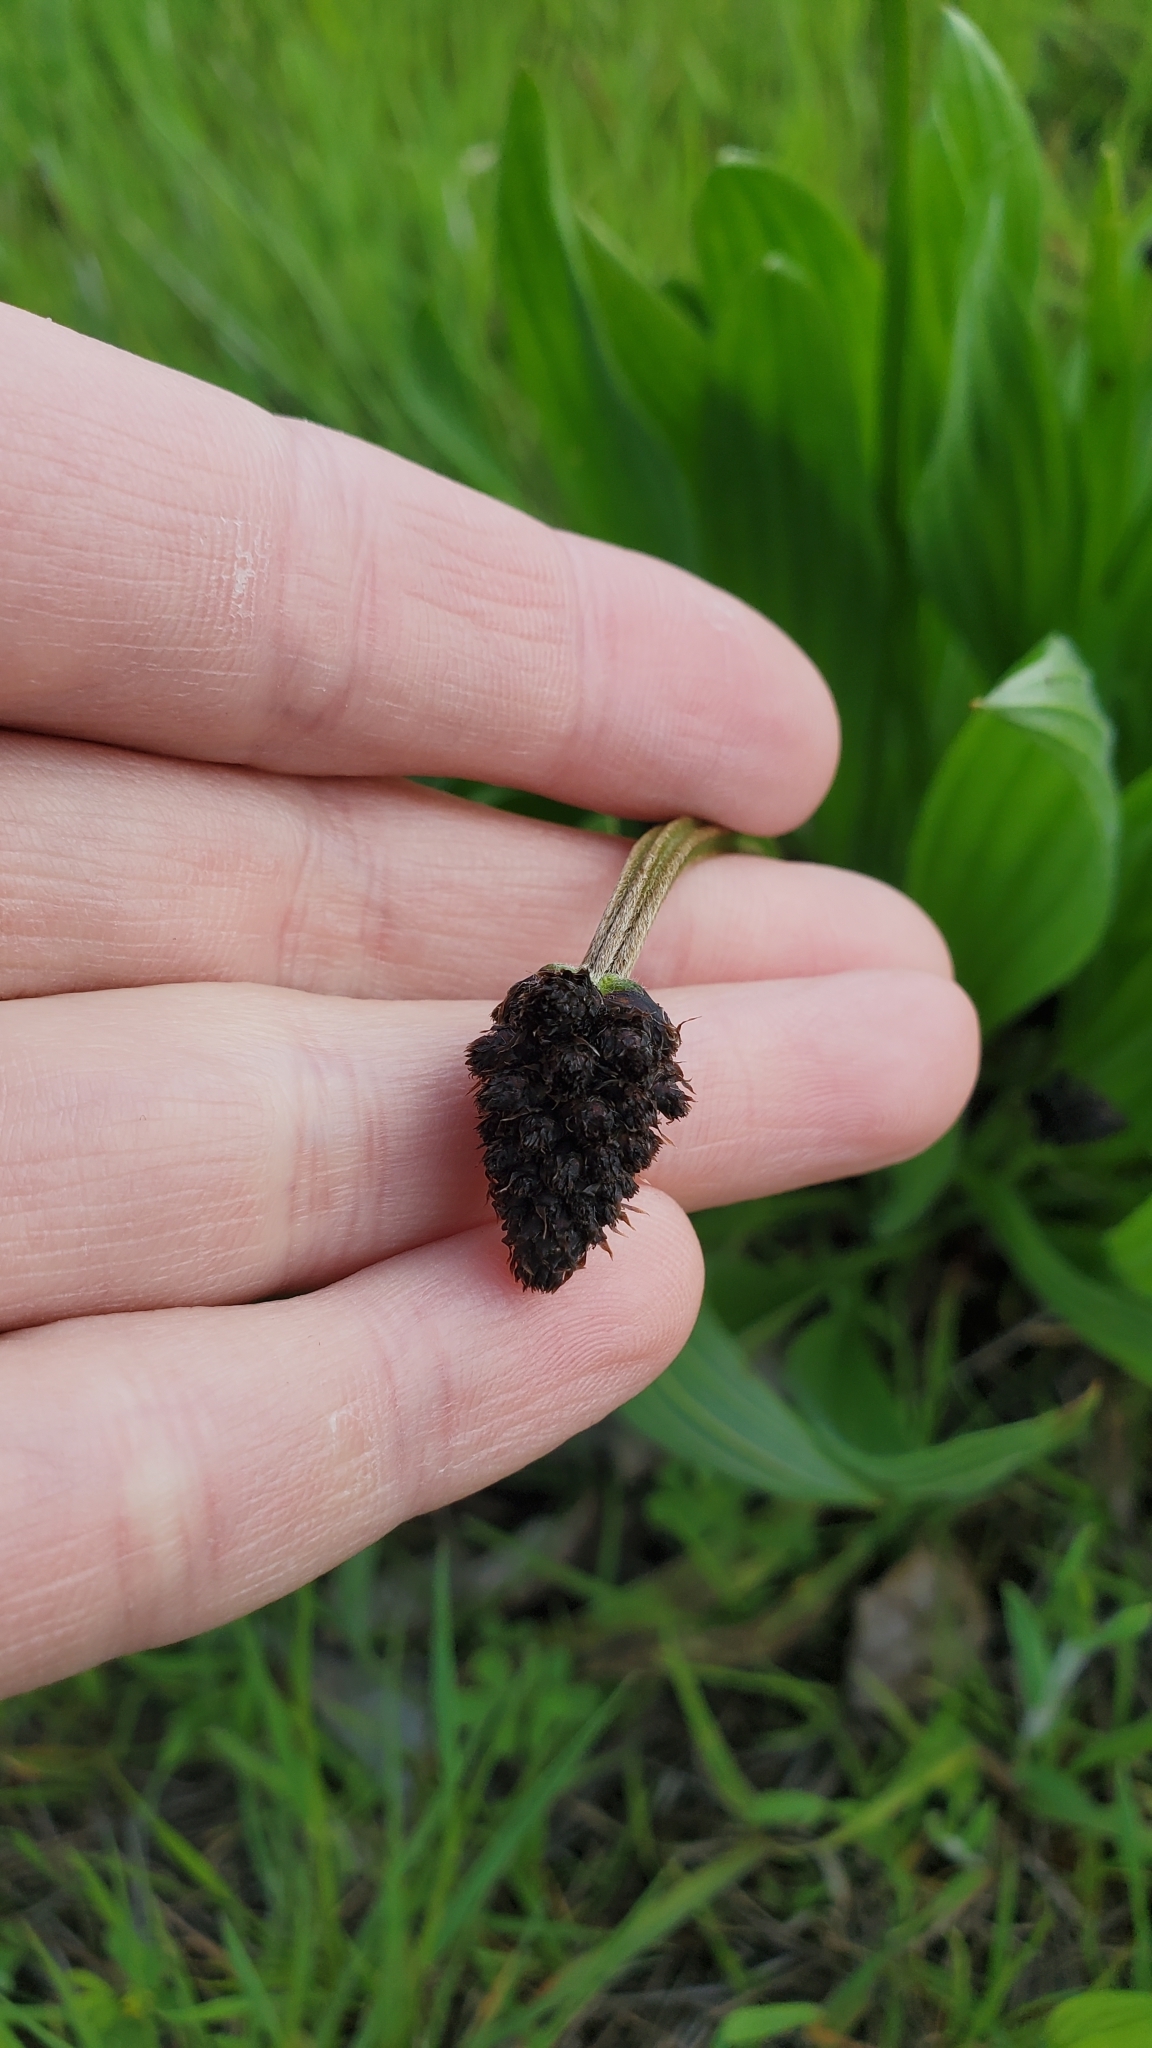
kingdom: Plantae
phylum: Tracheophyta
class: Magnoliopsida
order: Lamiales
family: Plantaginaceae
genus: Plantago
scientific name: Plantago lanceolata
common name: Ribwort plantain
